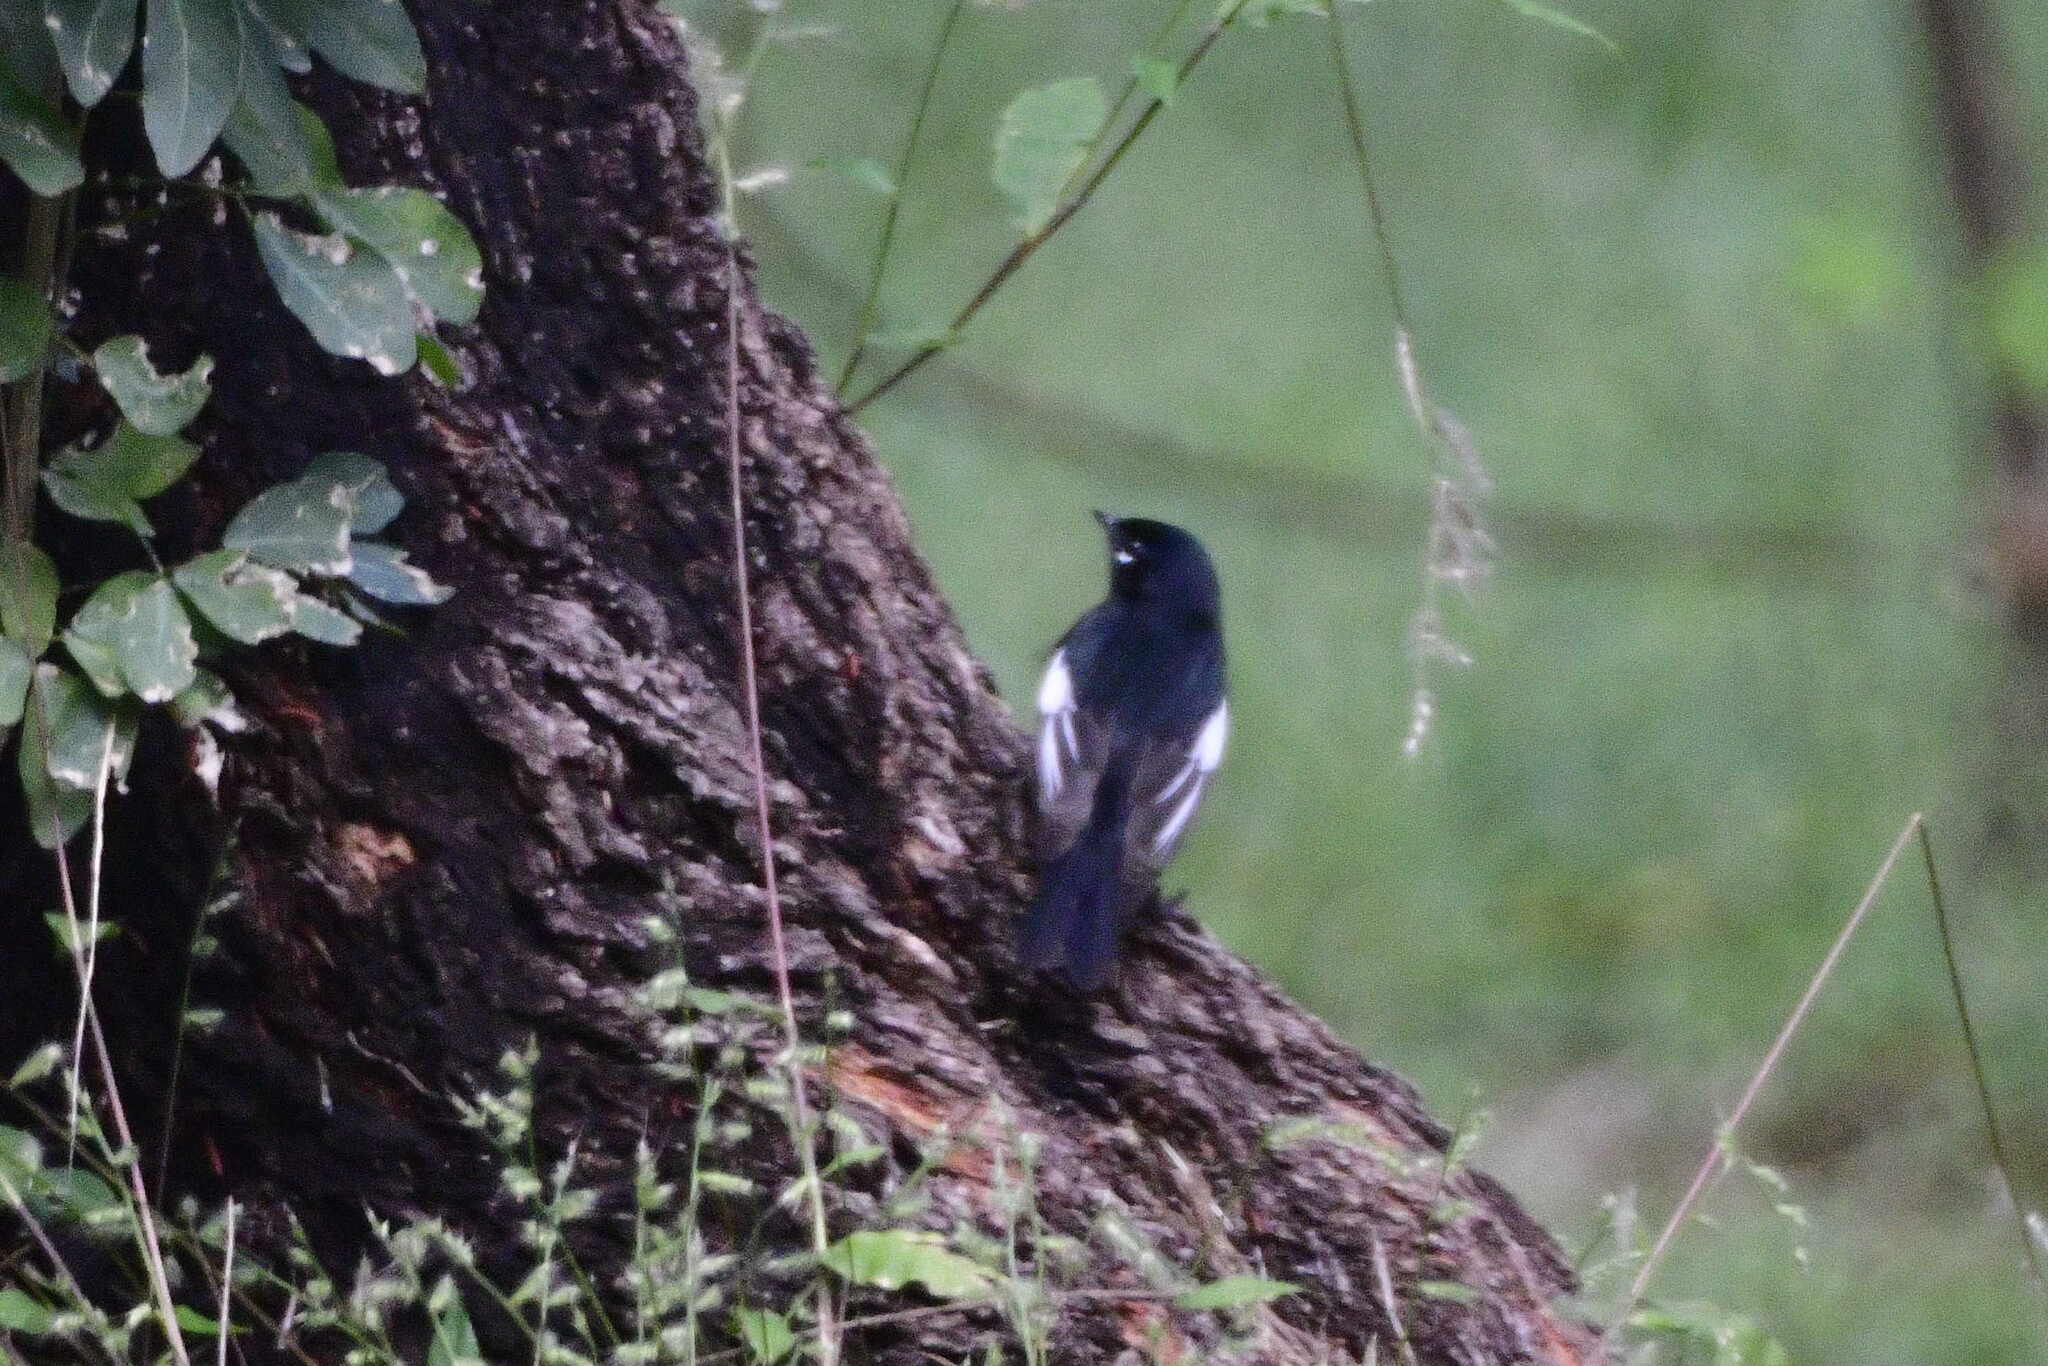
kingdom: Animalia
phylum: Chordata
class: Aves
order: Passeriformes
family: Parulidae
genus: Myioborus
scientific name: Myioborus pictus
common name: Painted whitestart
